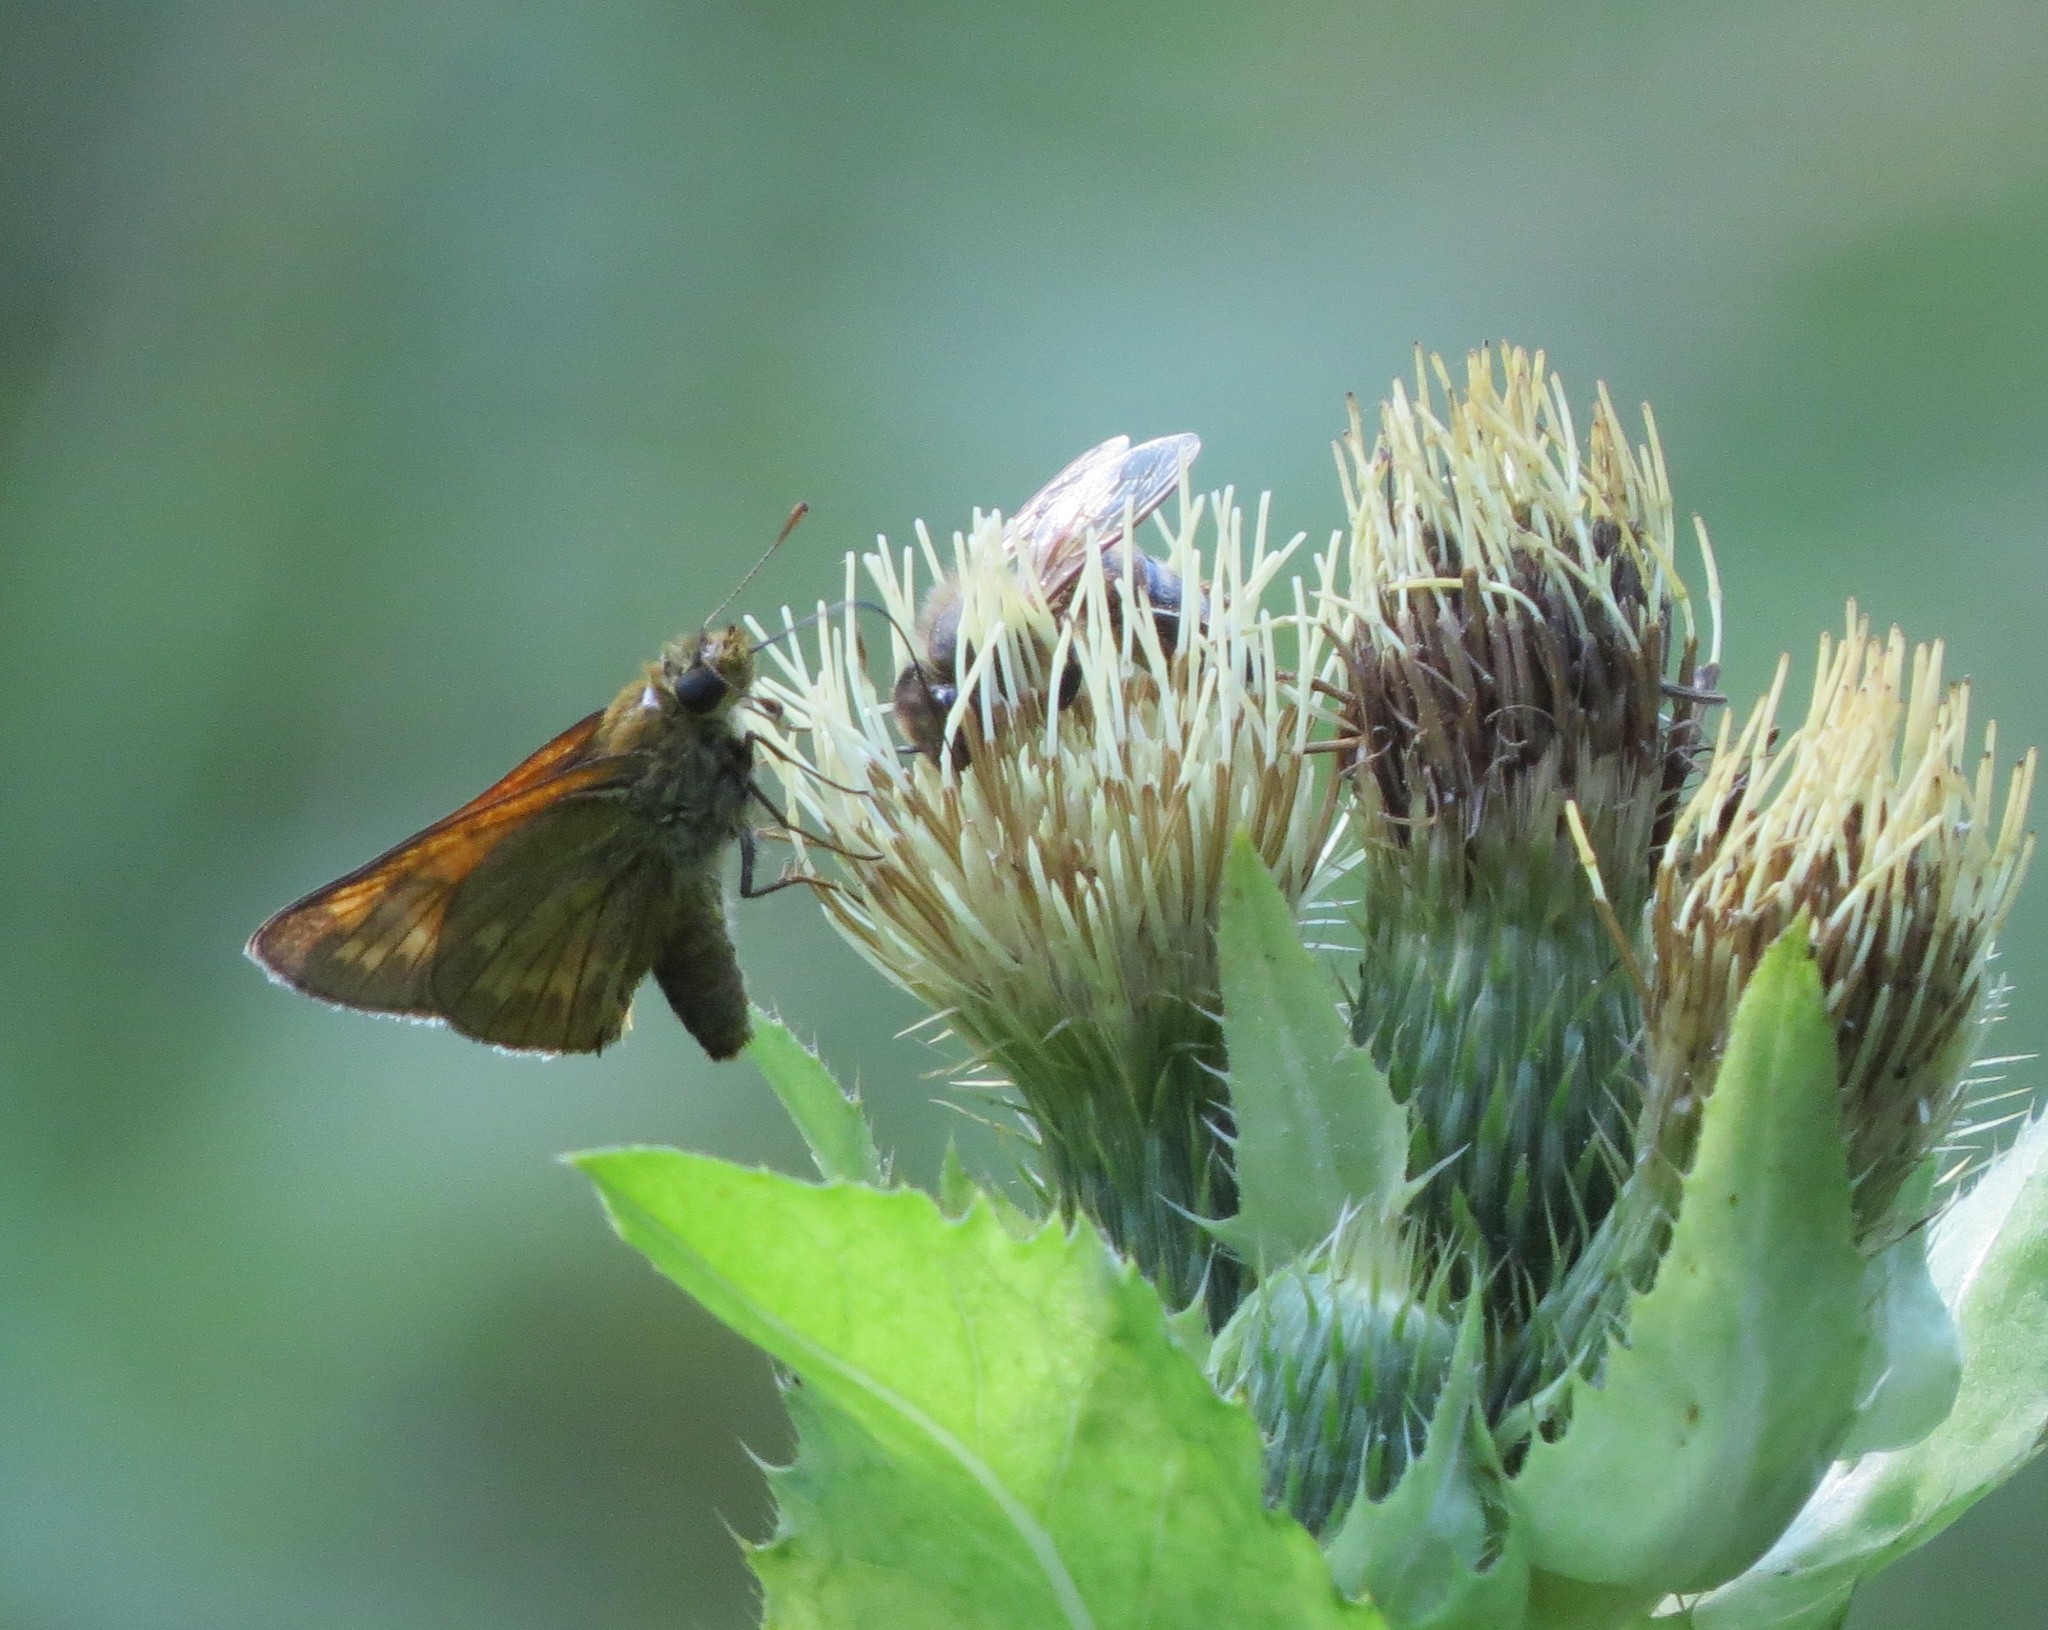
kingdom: Animalia
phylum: Arthropoda
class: Insecta
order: Lepidoptera
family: Hesperiidae
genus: Ochlodes
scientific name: Ochlodes venata
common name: Large skipper
